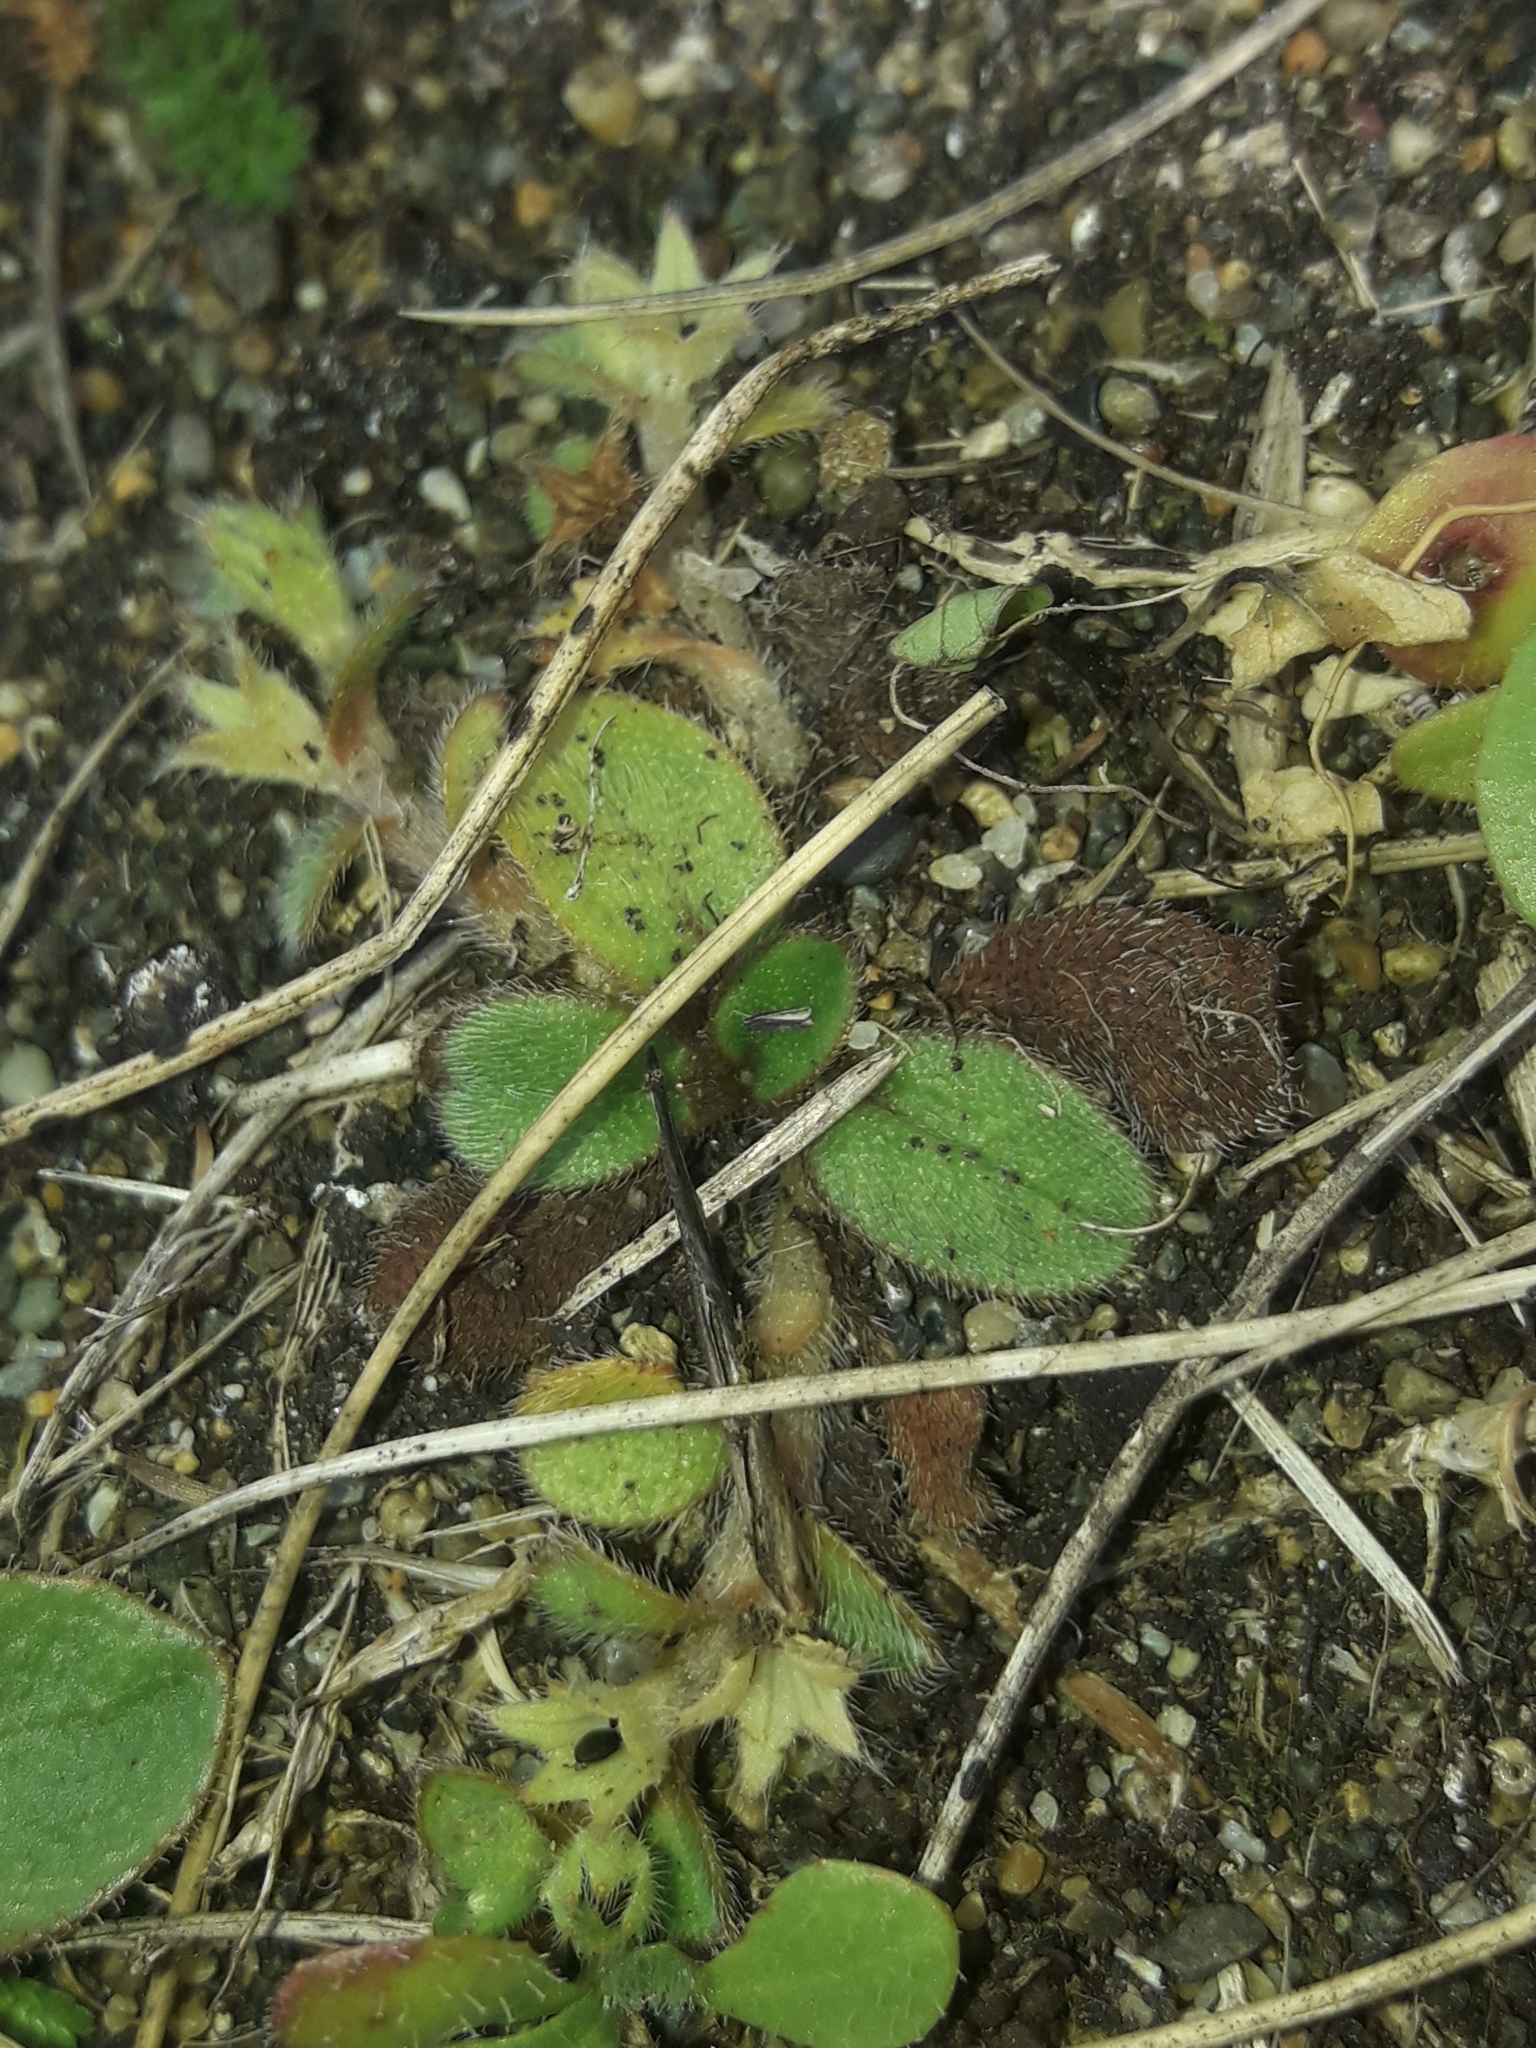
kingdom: Plantae
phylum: Tracheophyta
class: Magnoliopsida
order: Boraginales
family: Boraginaceae
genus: Myosotis
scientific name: Myosotis antarctica
